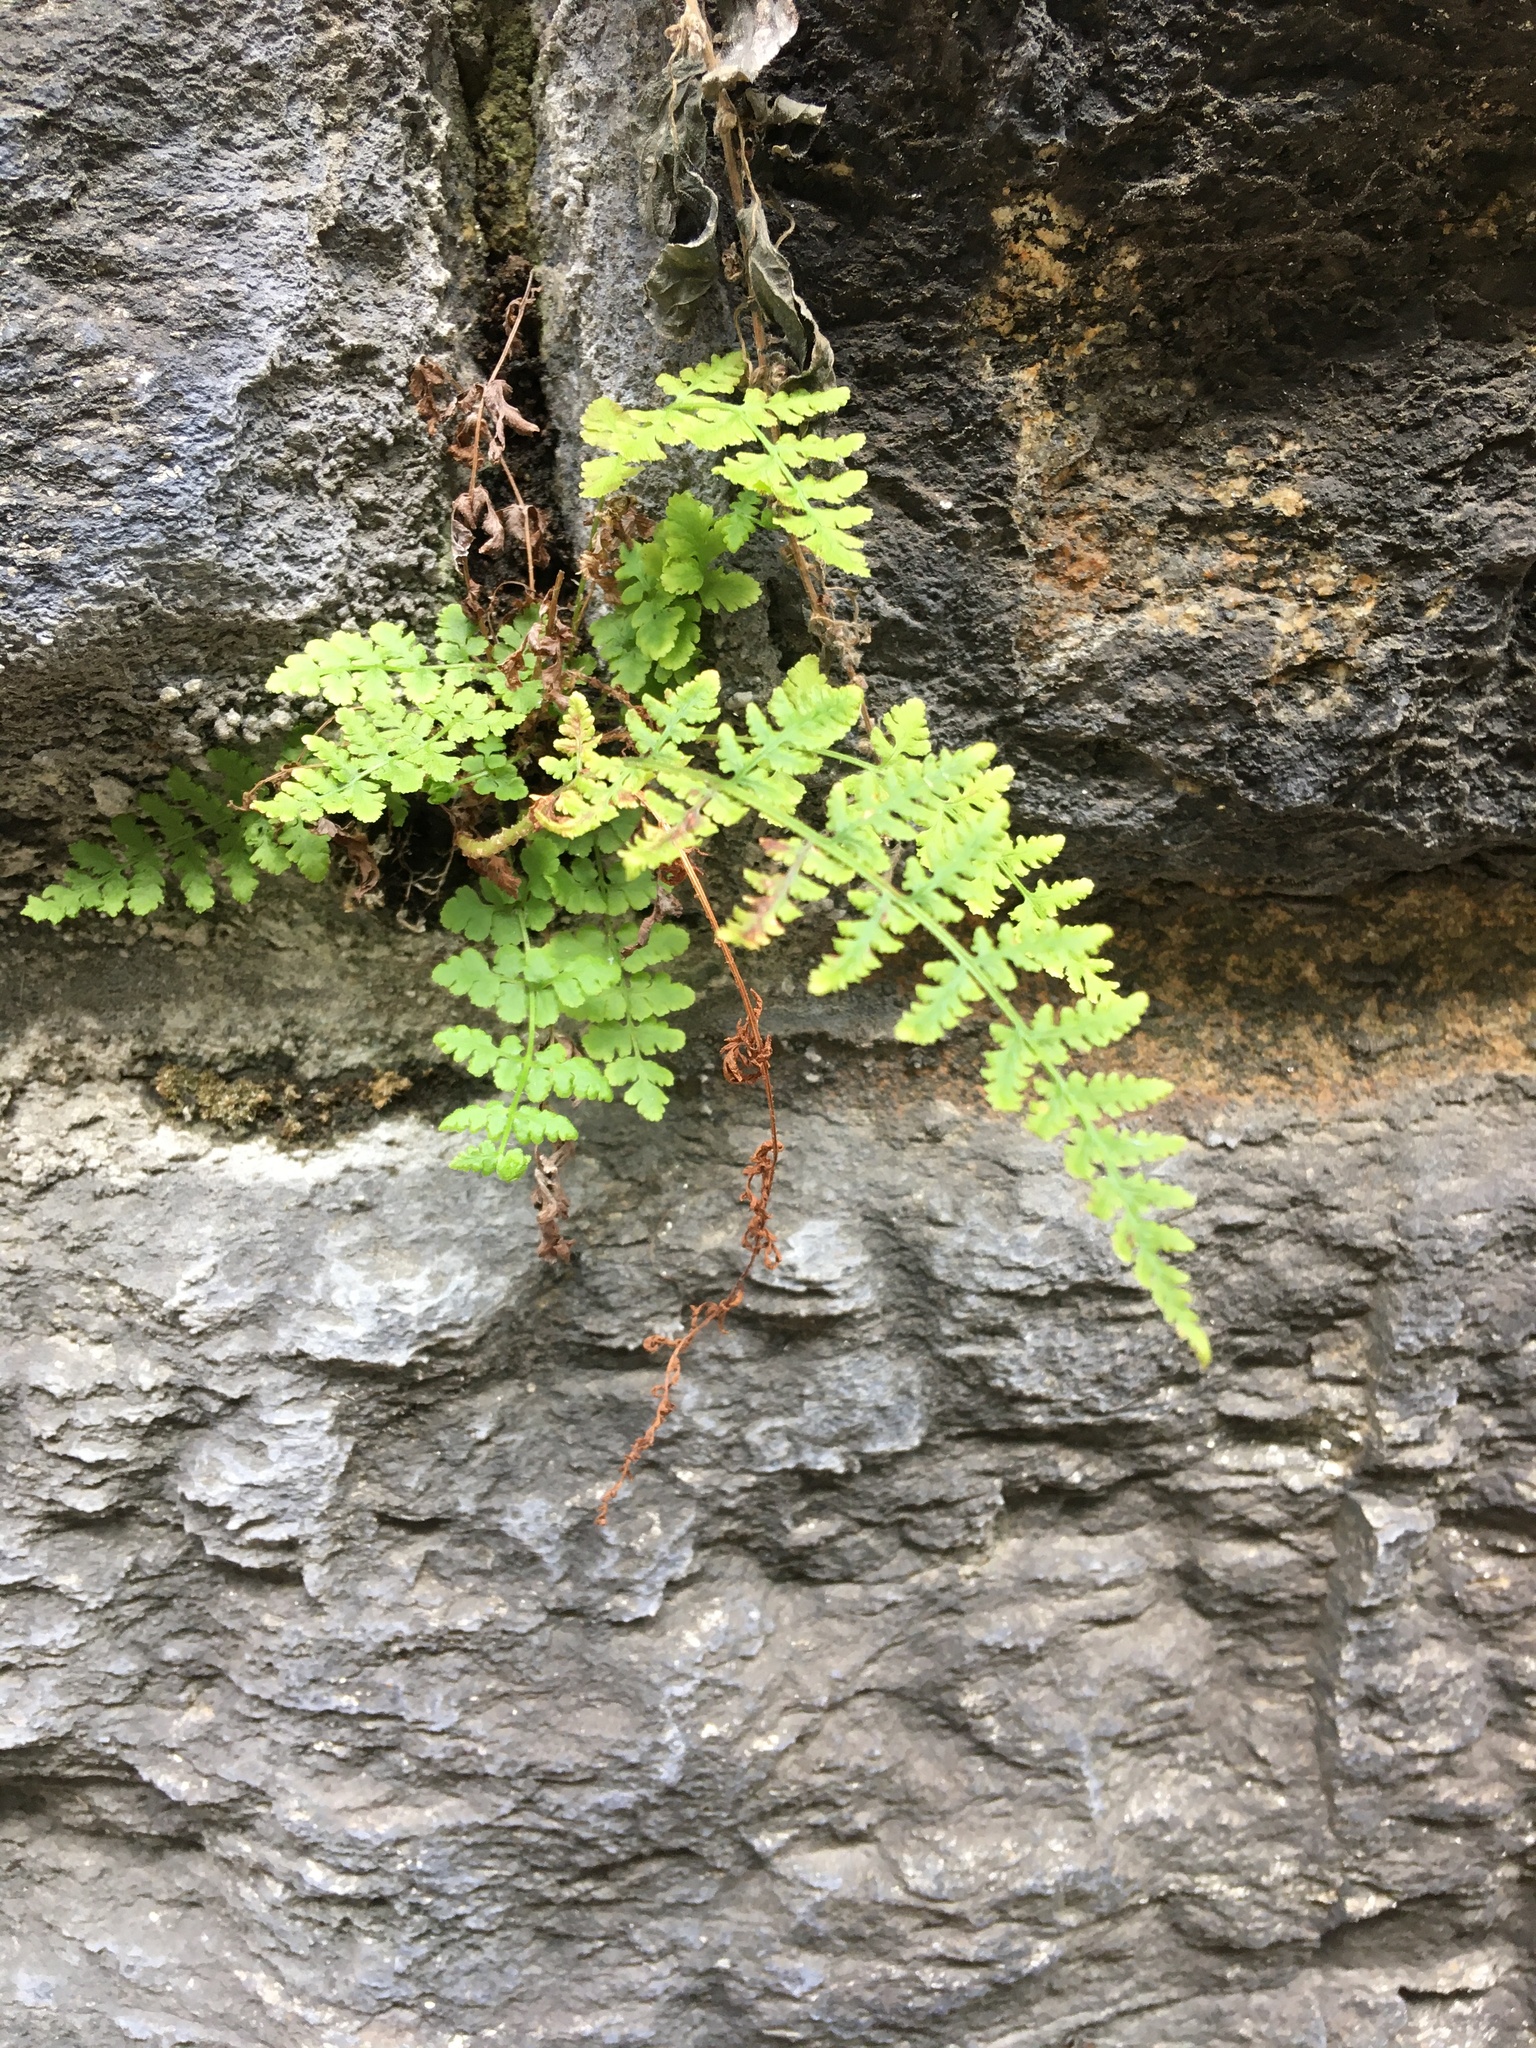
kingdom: Plantae
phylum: Tracheophyta
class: Polypodiopsida
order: Polypodiales
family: Woodsiaceae
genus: Physematium
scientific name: Physematium obtusum
